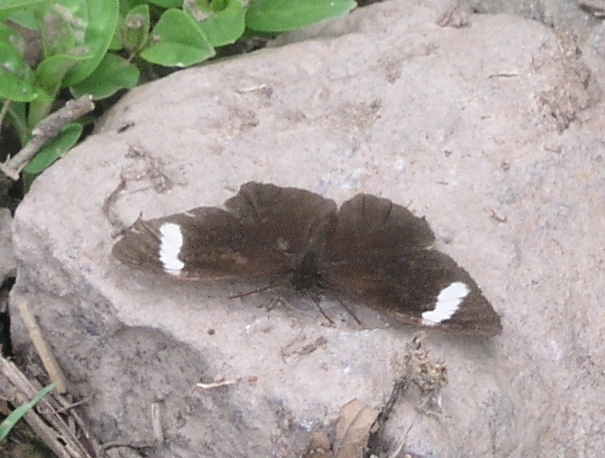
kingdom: Animalia
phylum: Arthropoda
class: Insecta
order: Lepidoptera
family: Nymphalidae
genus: Pedaliodes
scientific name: Pedaliodes porina
